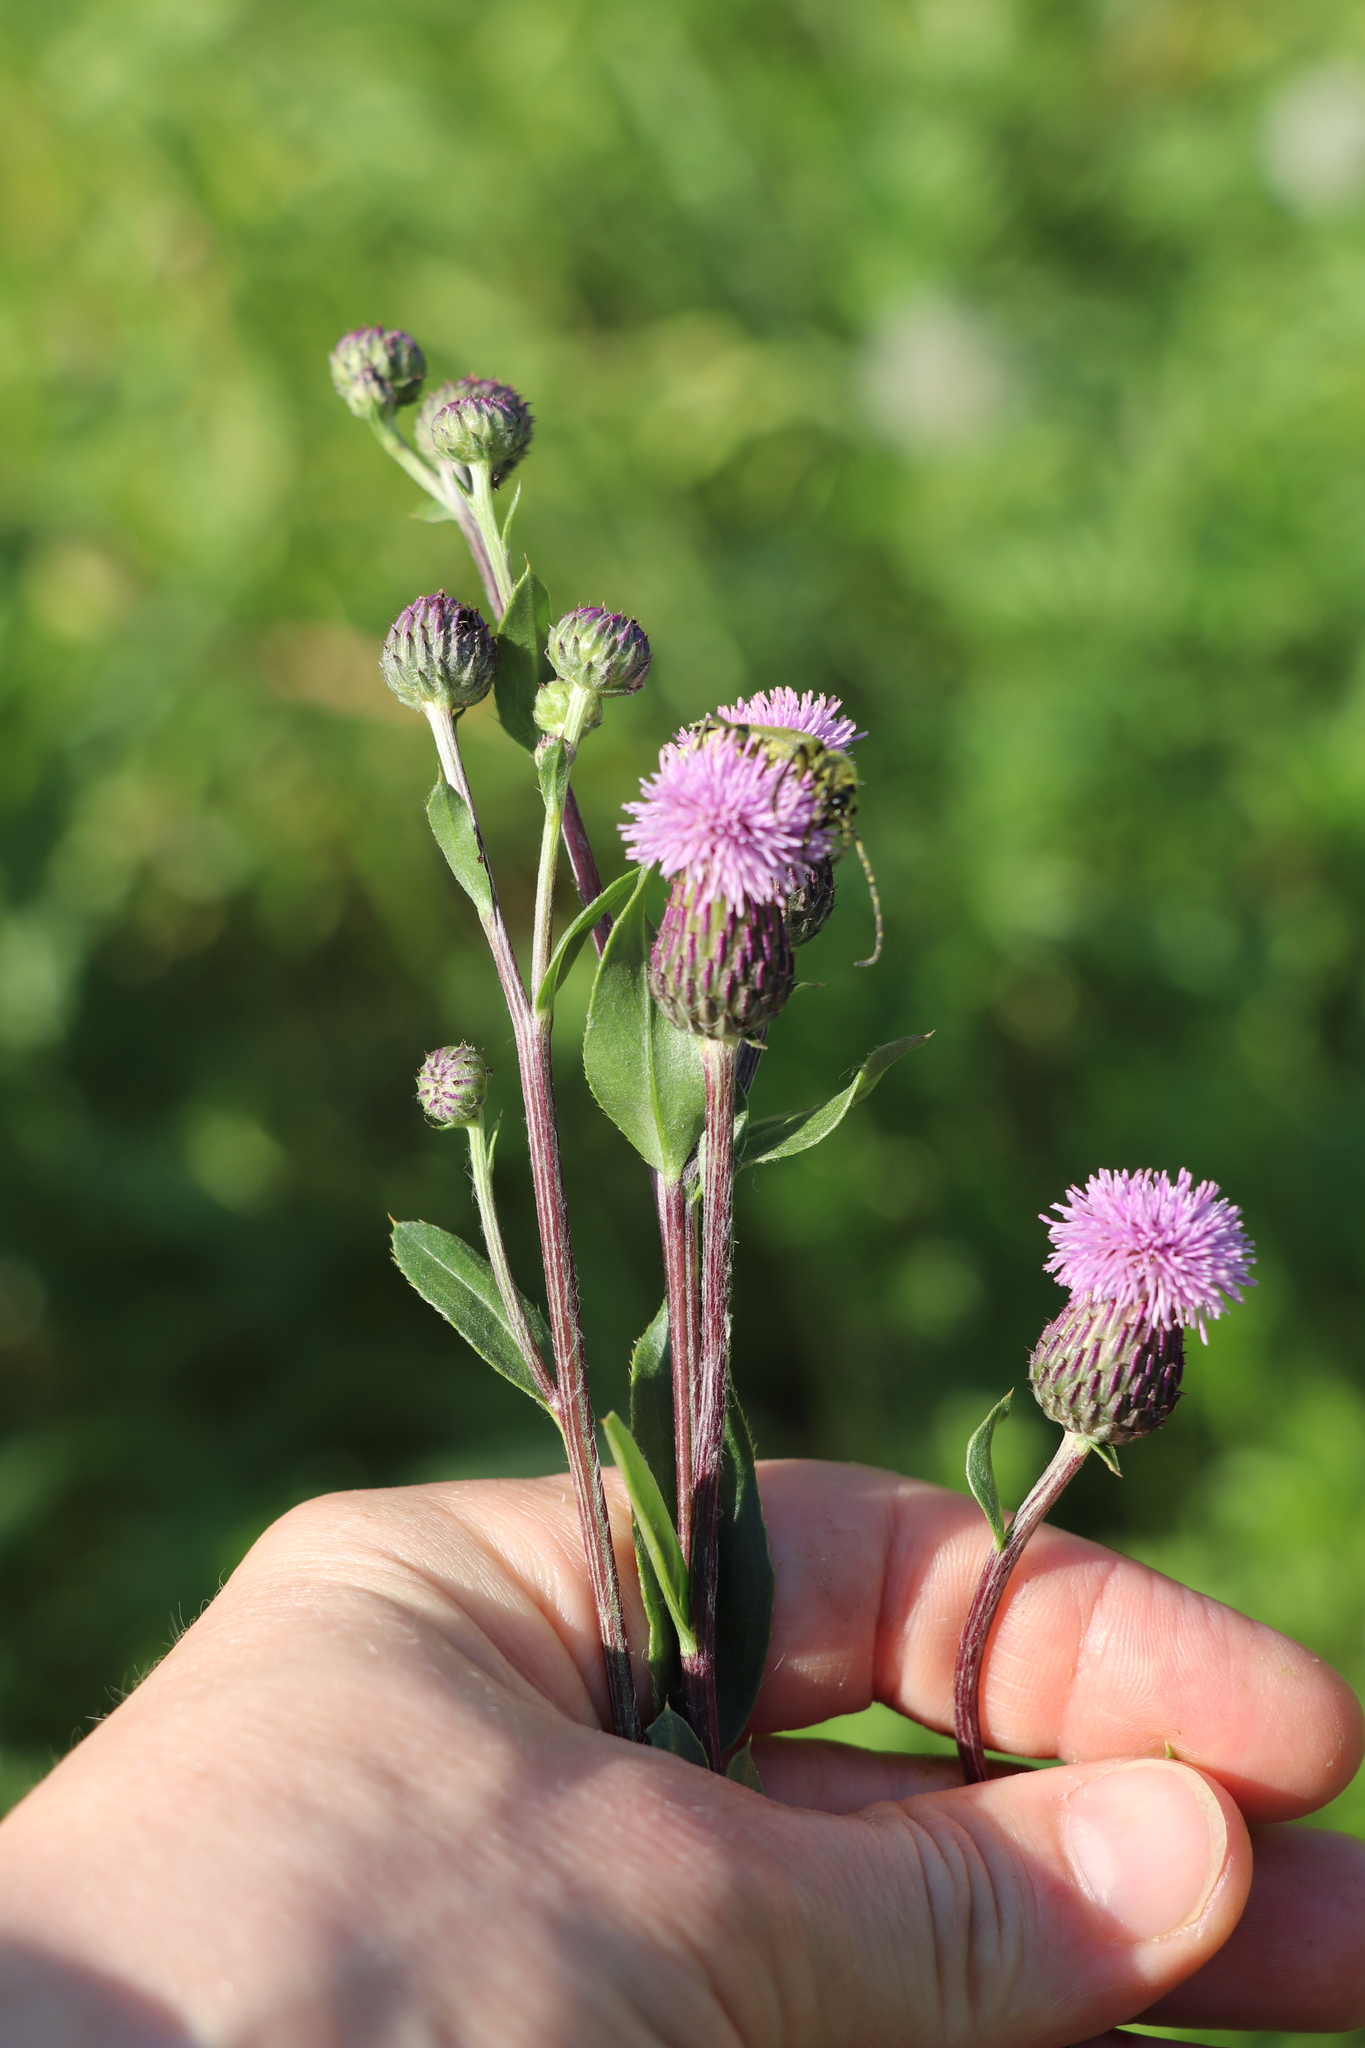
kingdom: Plantae
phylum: Tracheophyta
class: Magnoliopsida
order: Asterales
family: Asteraceae
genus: Cirsium
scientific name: Cirsium arvense
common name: Creeping thistle
